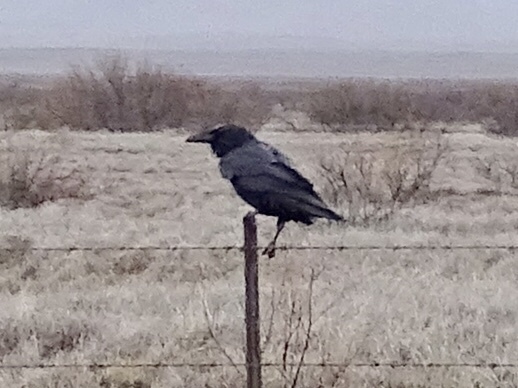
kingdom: Animalia
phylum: Chordata
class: Aves
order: Passeriformes
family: Corvidae
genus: Corvus
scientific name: Corvus corax
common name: Common raven
